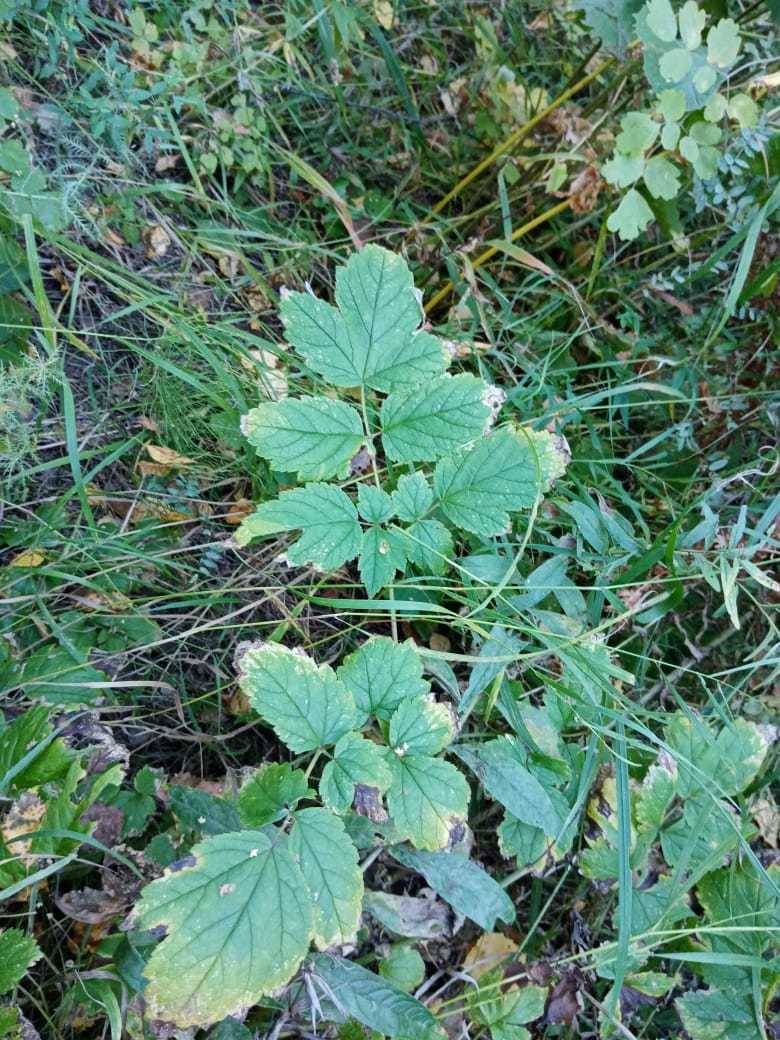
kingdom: Plantae
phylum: Tracheophyta
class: Magnoliopsida
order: Ranunculales
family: Ranunculaceae
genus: Actaea
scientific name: Actaea cimicifuga
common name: Chinese cimicifuga
